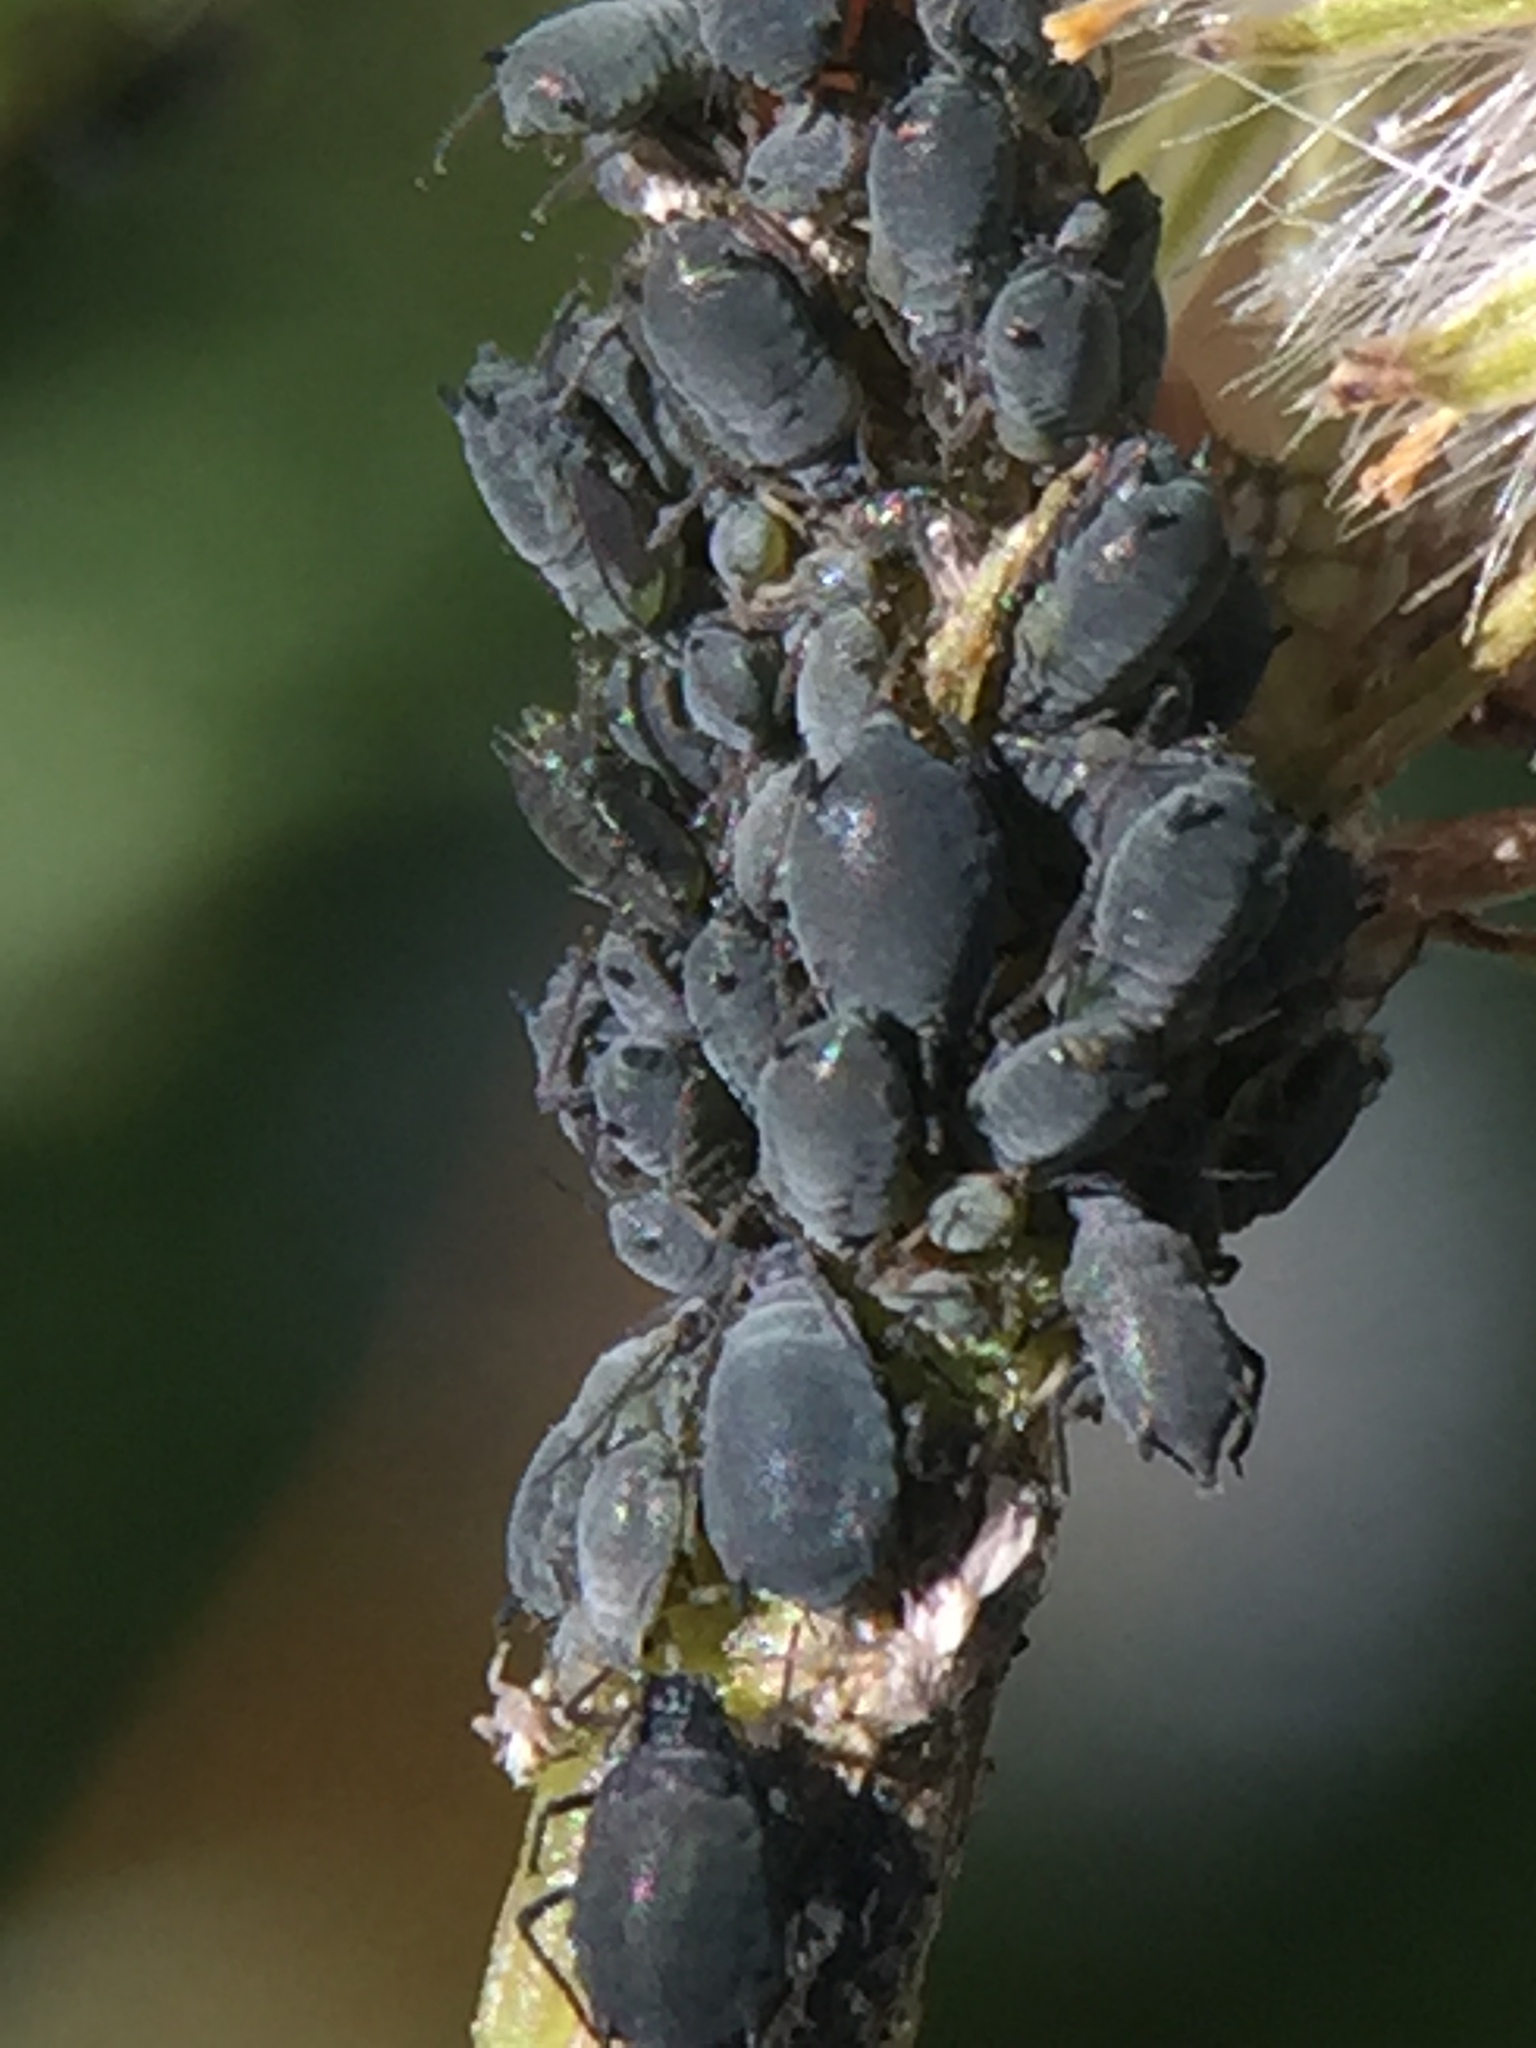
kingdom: Animalia
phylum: Arthropoda
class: Insecta
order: Hemiptera
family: Aphididae
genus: Aphis
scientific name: Aphis lugentis
